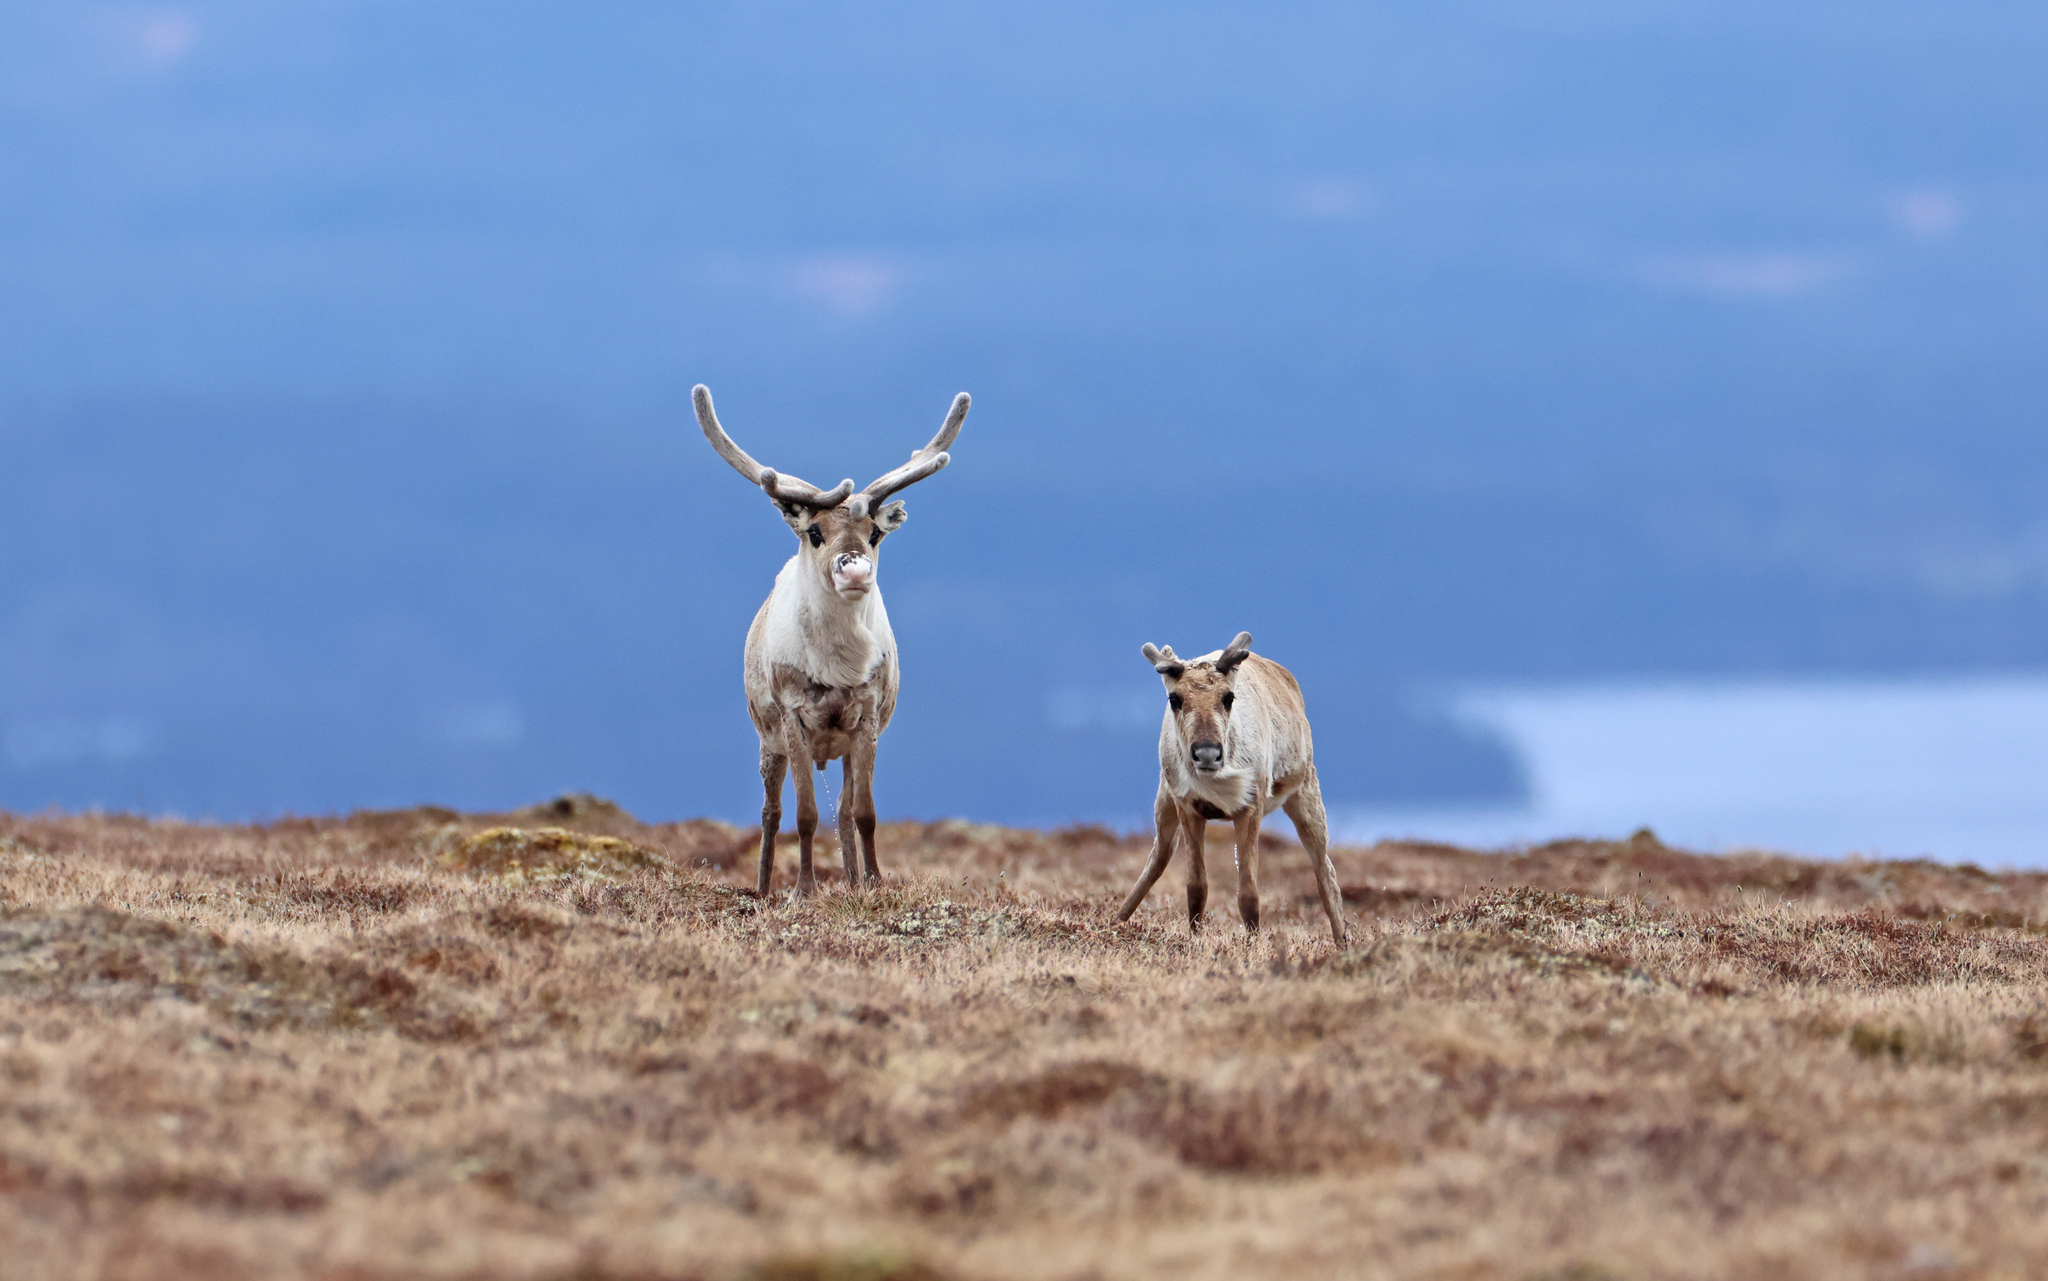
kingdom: Animalia
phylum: Chordata
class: Mammalia
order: Artiodactyla
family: Cervidae
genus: Rangifer
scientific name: Rangifer tarandus
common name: Reindeer
